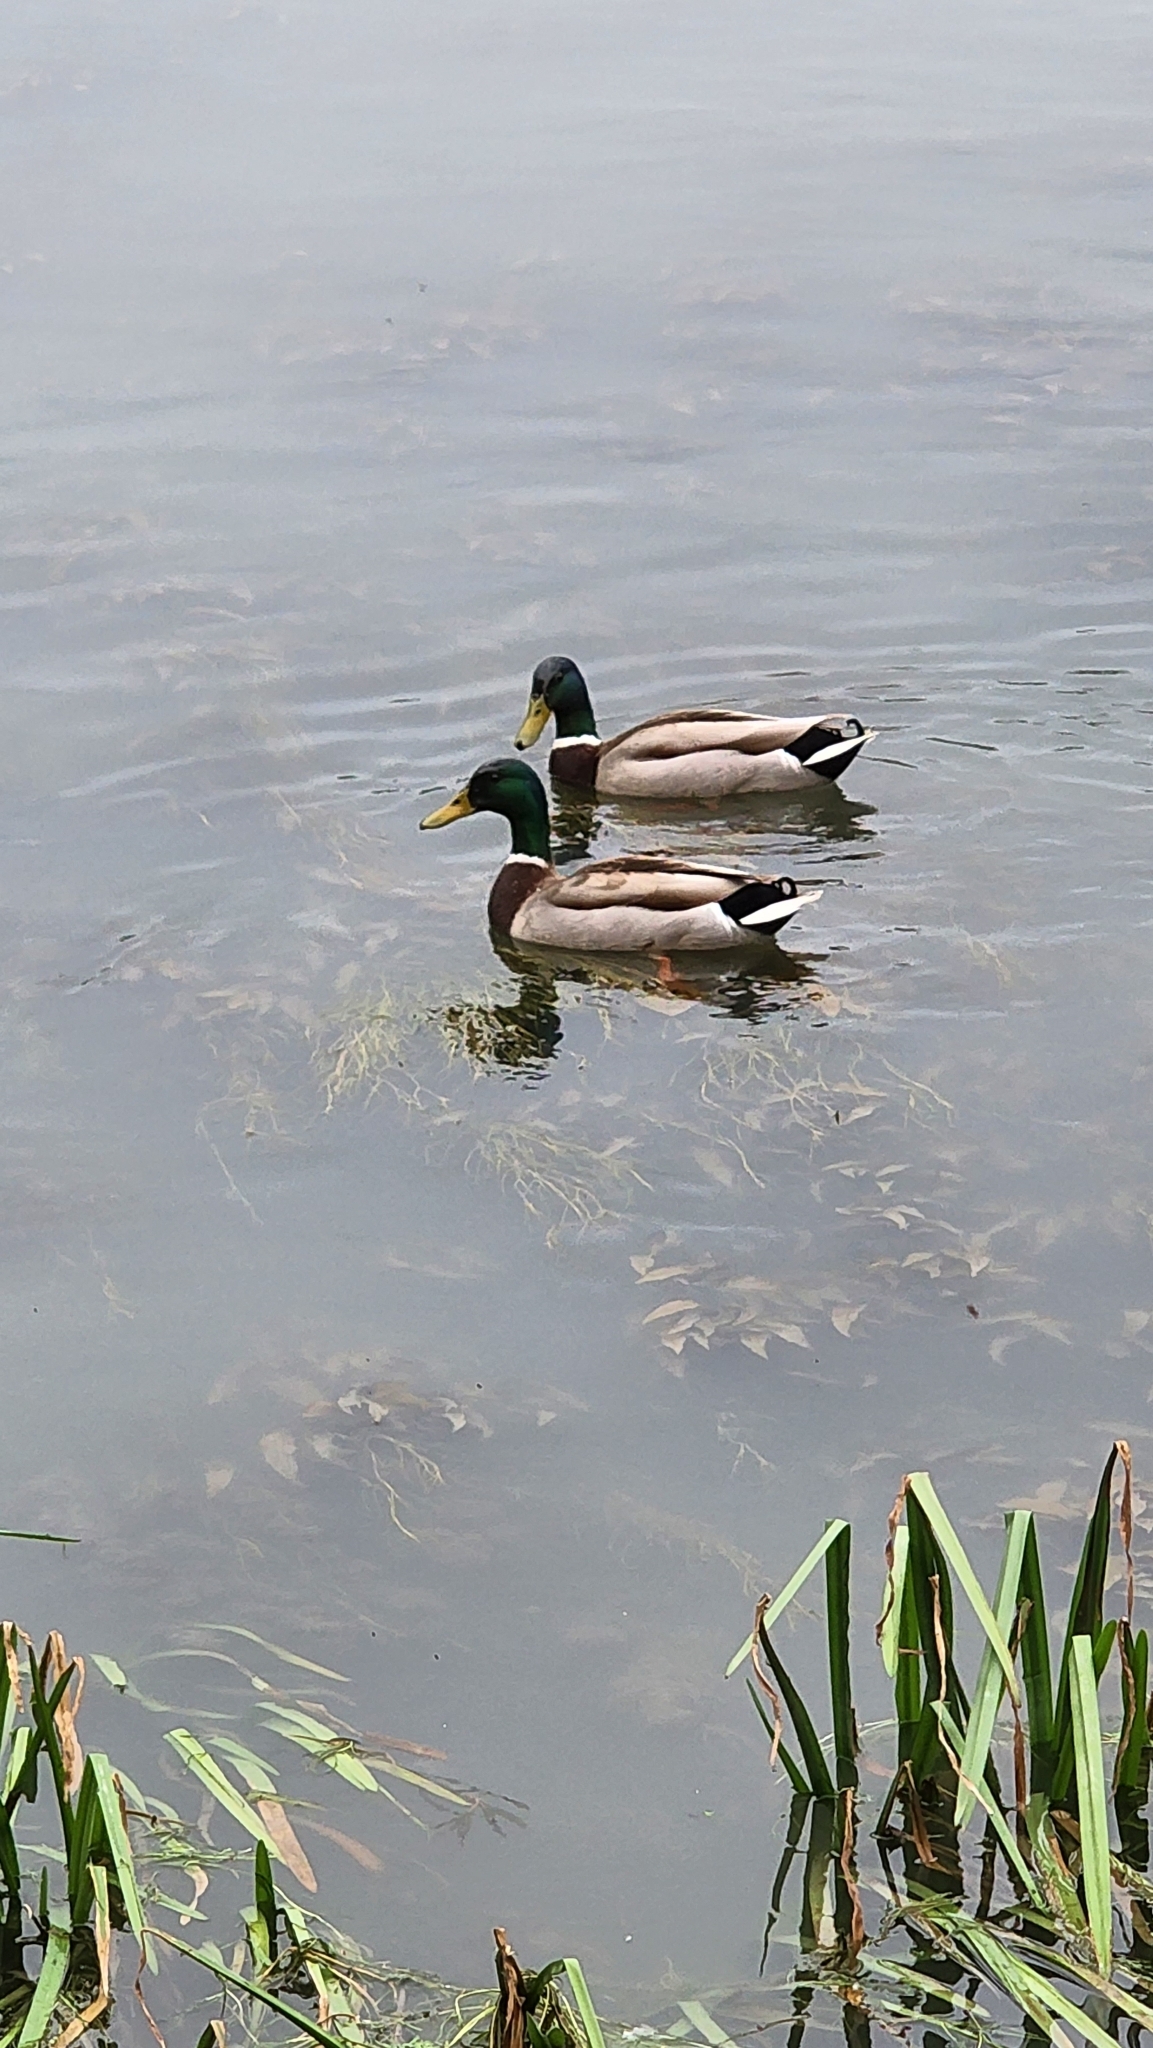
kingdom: Animalia
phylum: Chordata
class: Aves
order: Anseriformes
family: Anatidae
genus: Anas
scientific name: Anas platyrhynchos
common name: Mallard
